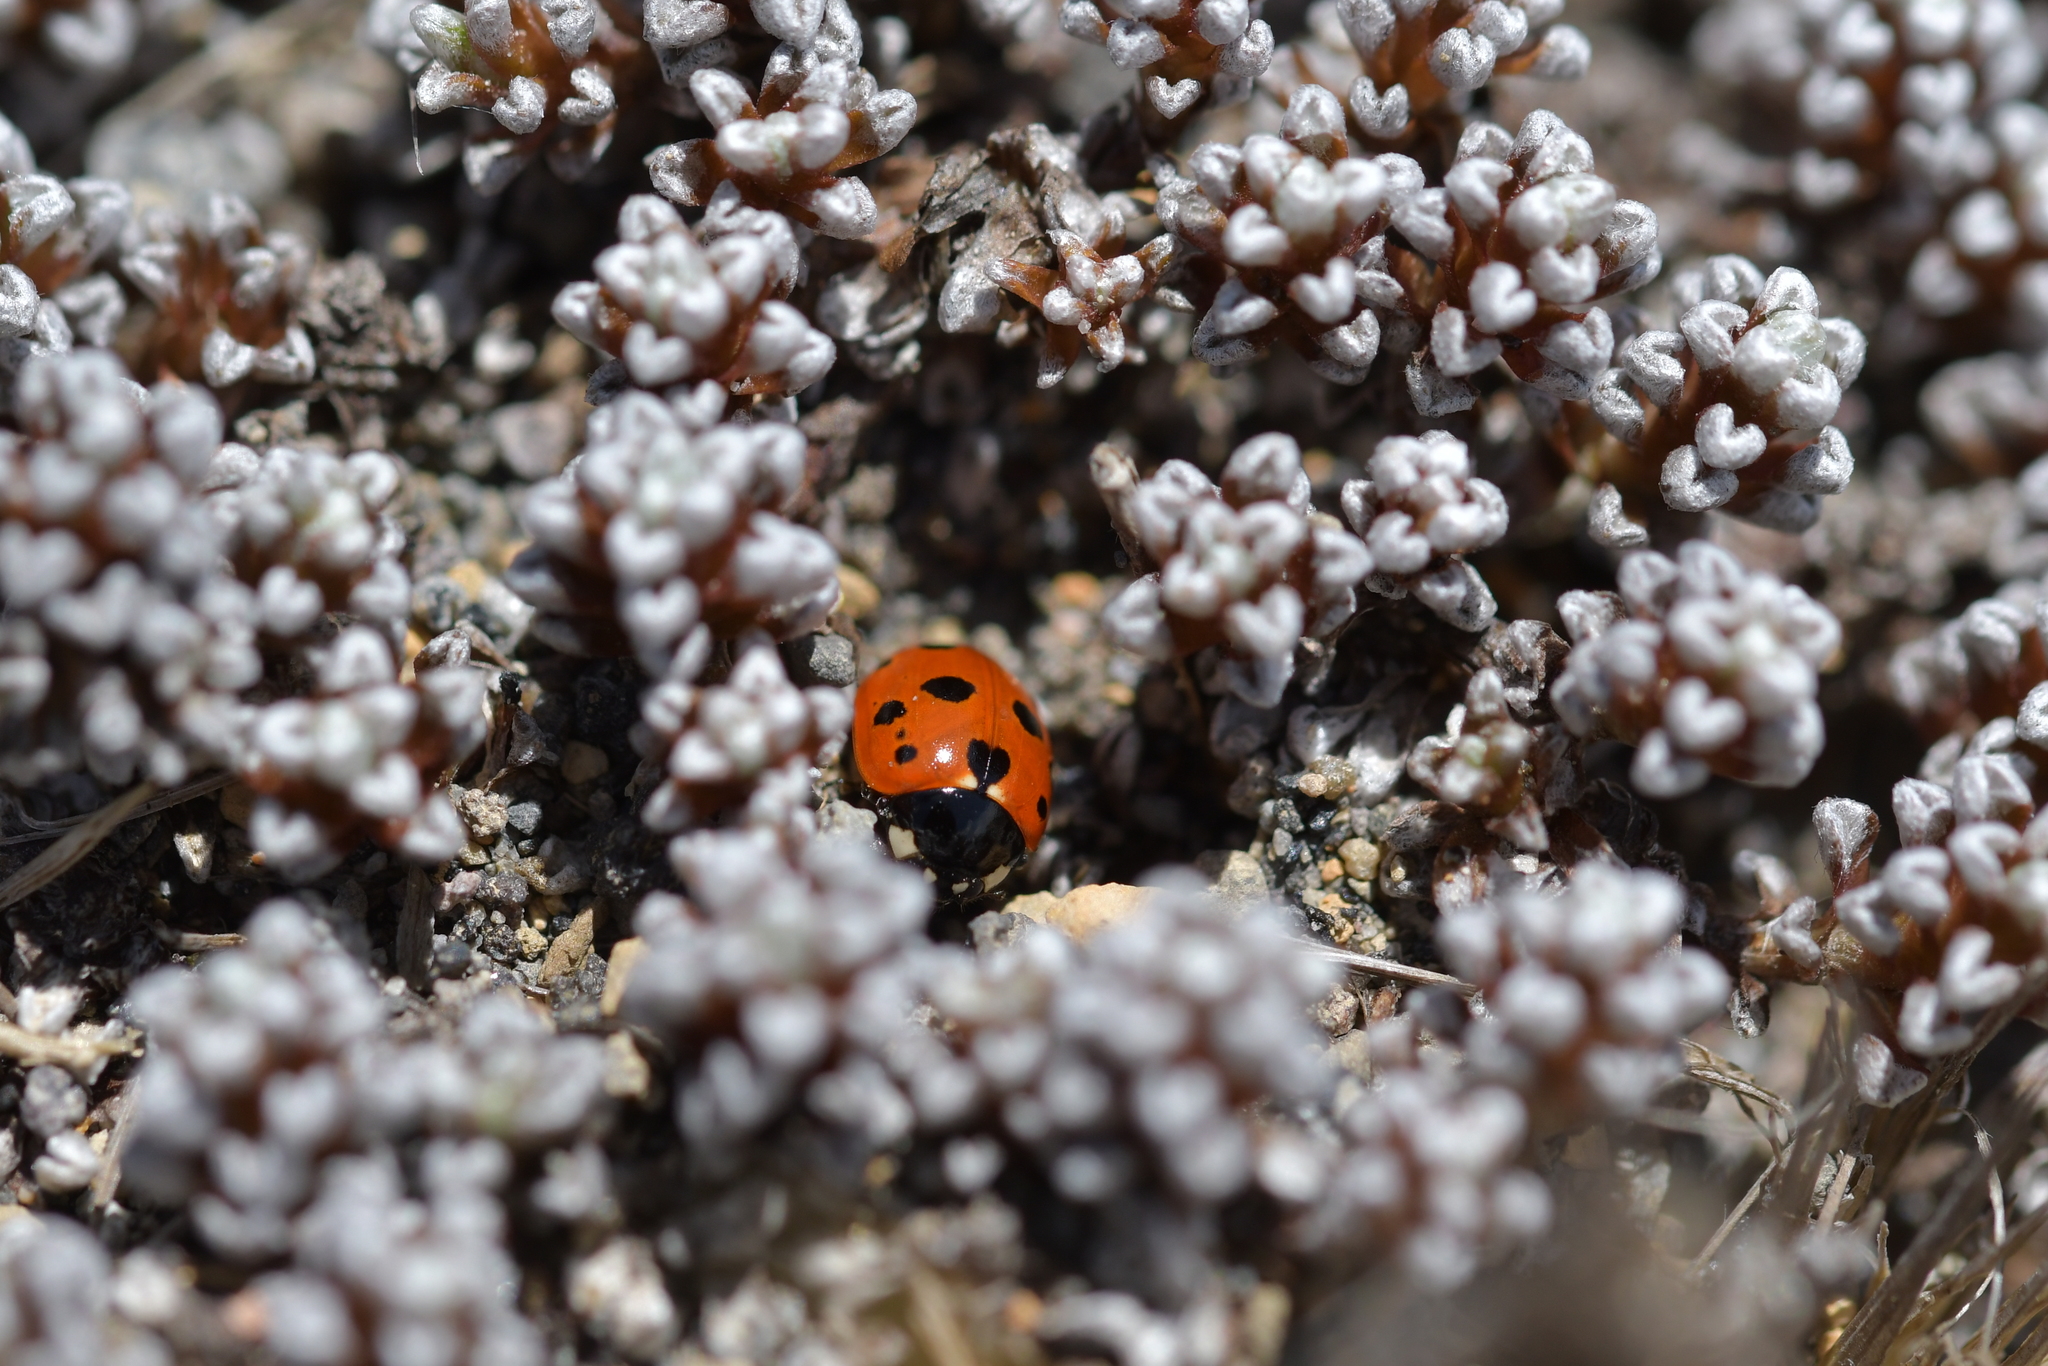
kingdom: Animalia
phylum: Arthropoda
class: Insecta
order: Coleoptera
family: Coccinellidae
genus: Coccinella
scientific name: Coccinella undecimpunctata
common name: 11-spot ladybird
